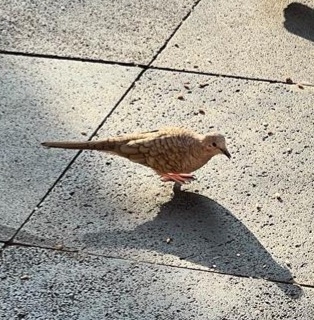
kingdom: Animalia
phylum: Chordata
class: Aves
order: Columbiformes
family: Columbidae
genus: Columbina
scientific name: Columbina inca
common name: Inca dove
